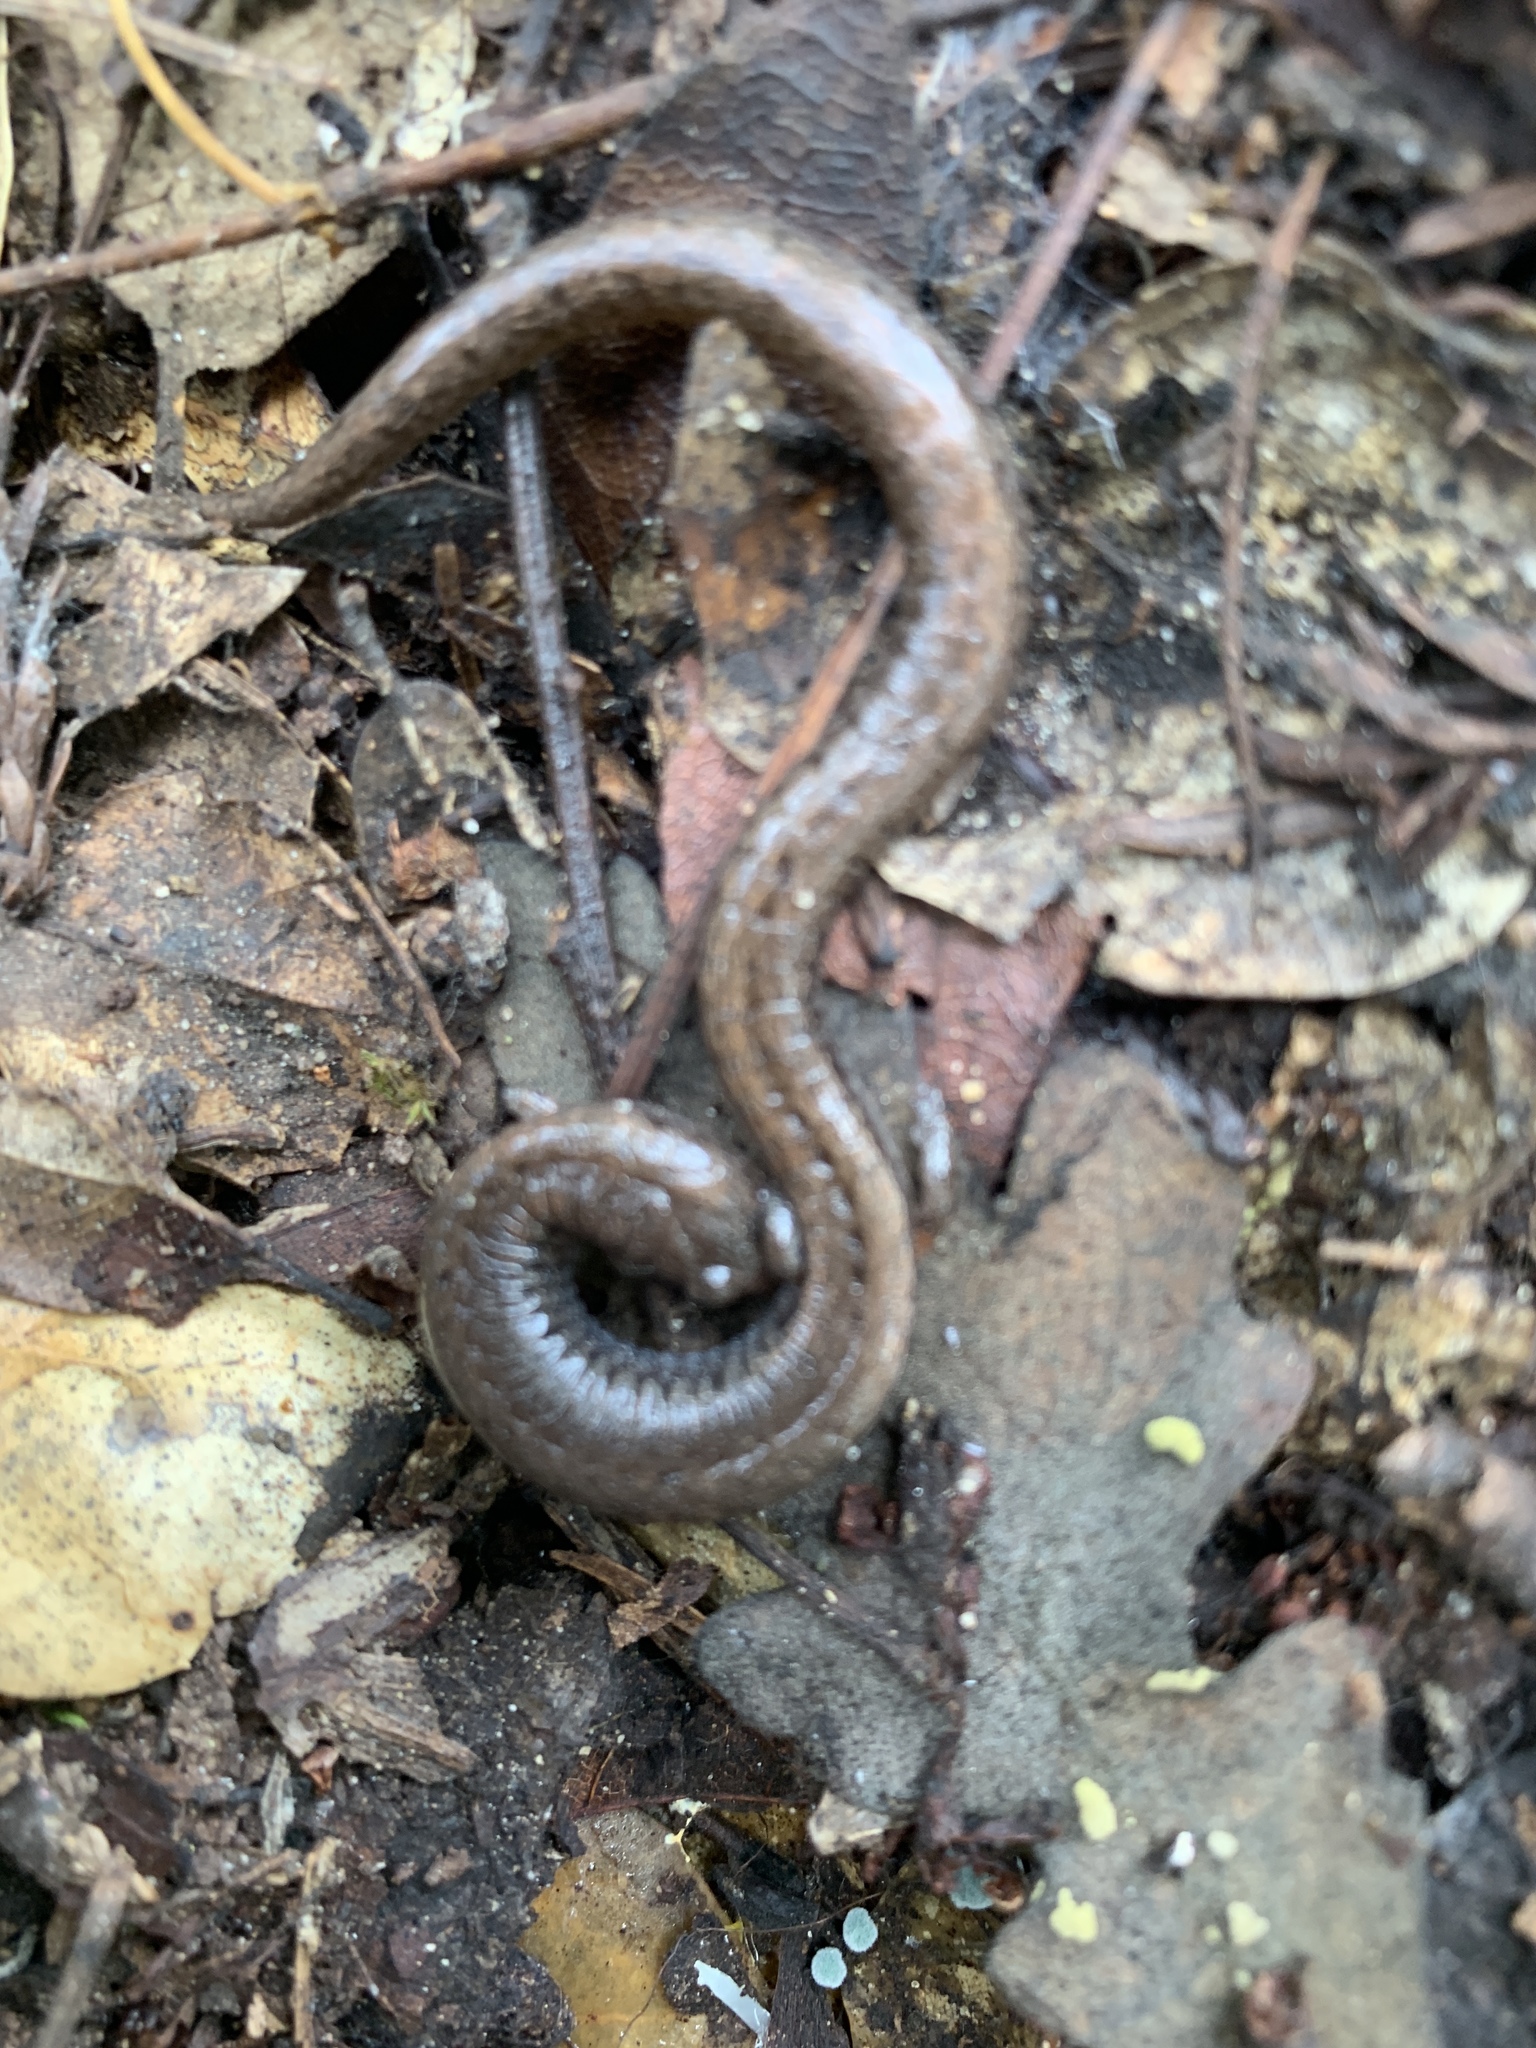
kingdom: Animalia
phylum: Chordata
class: Amphibia
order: Caudata
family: Plethodontidae
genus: Batrachoseps
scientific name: Batrachoseps attenuatus
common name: California slender salamander
